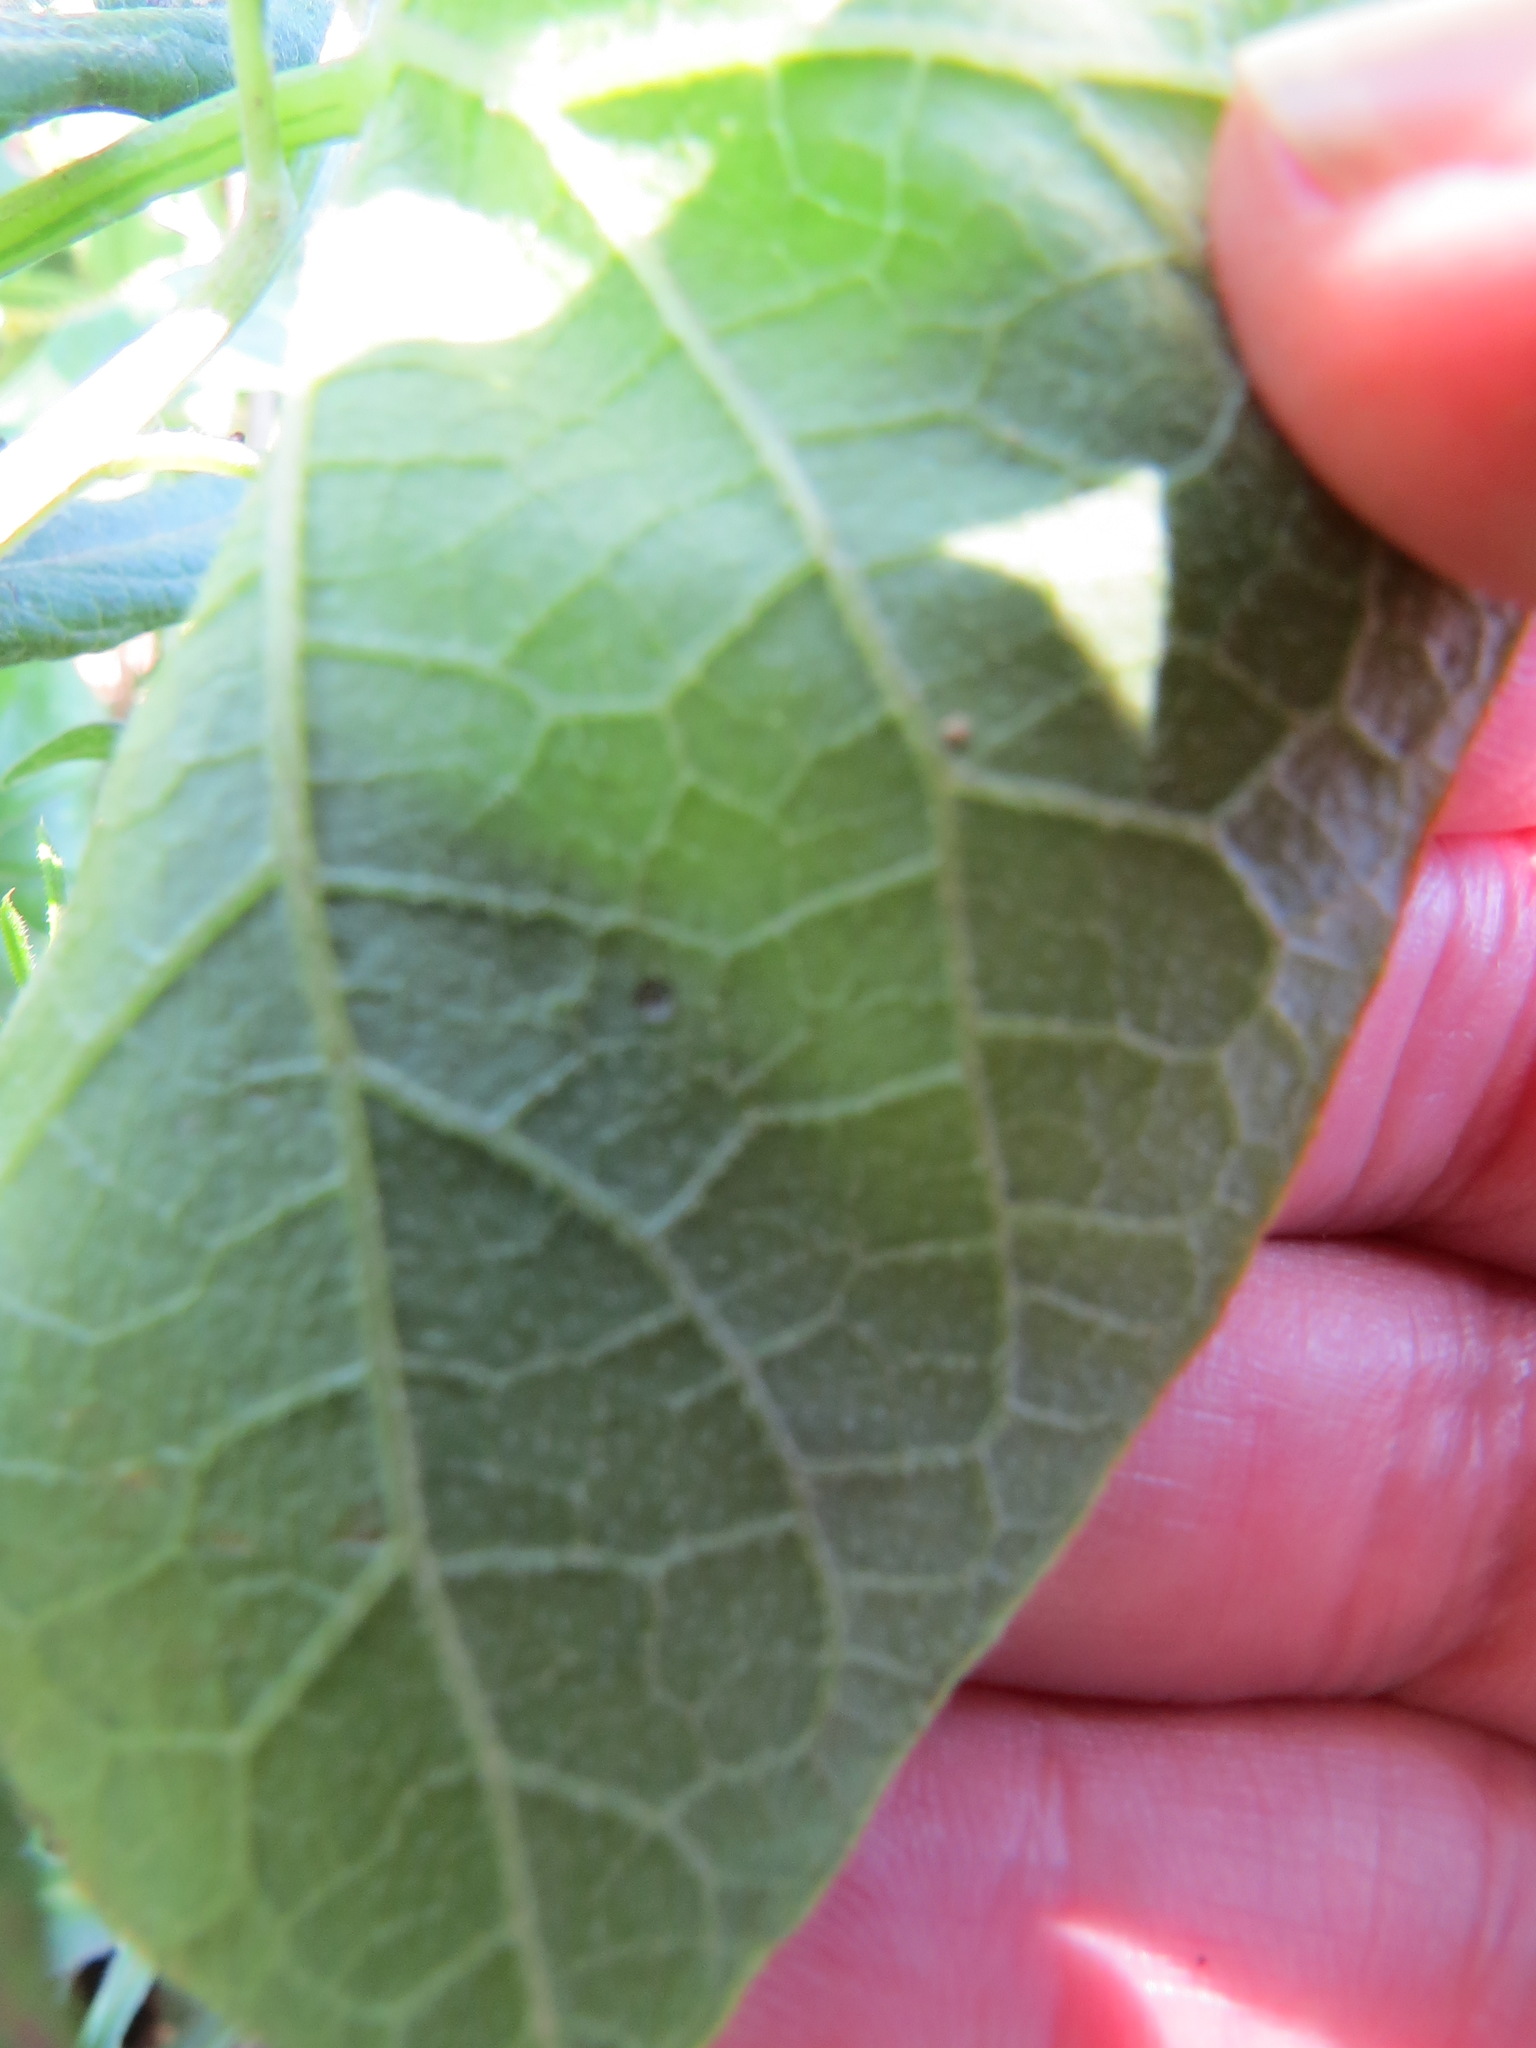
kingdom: Animalia
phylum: Arthropoda
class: Insecta
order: Lepidoptera
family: Coleophoridae
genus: Coleophora
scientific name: Coleophora
